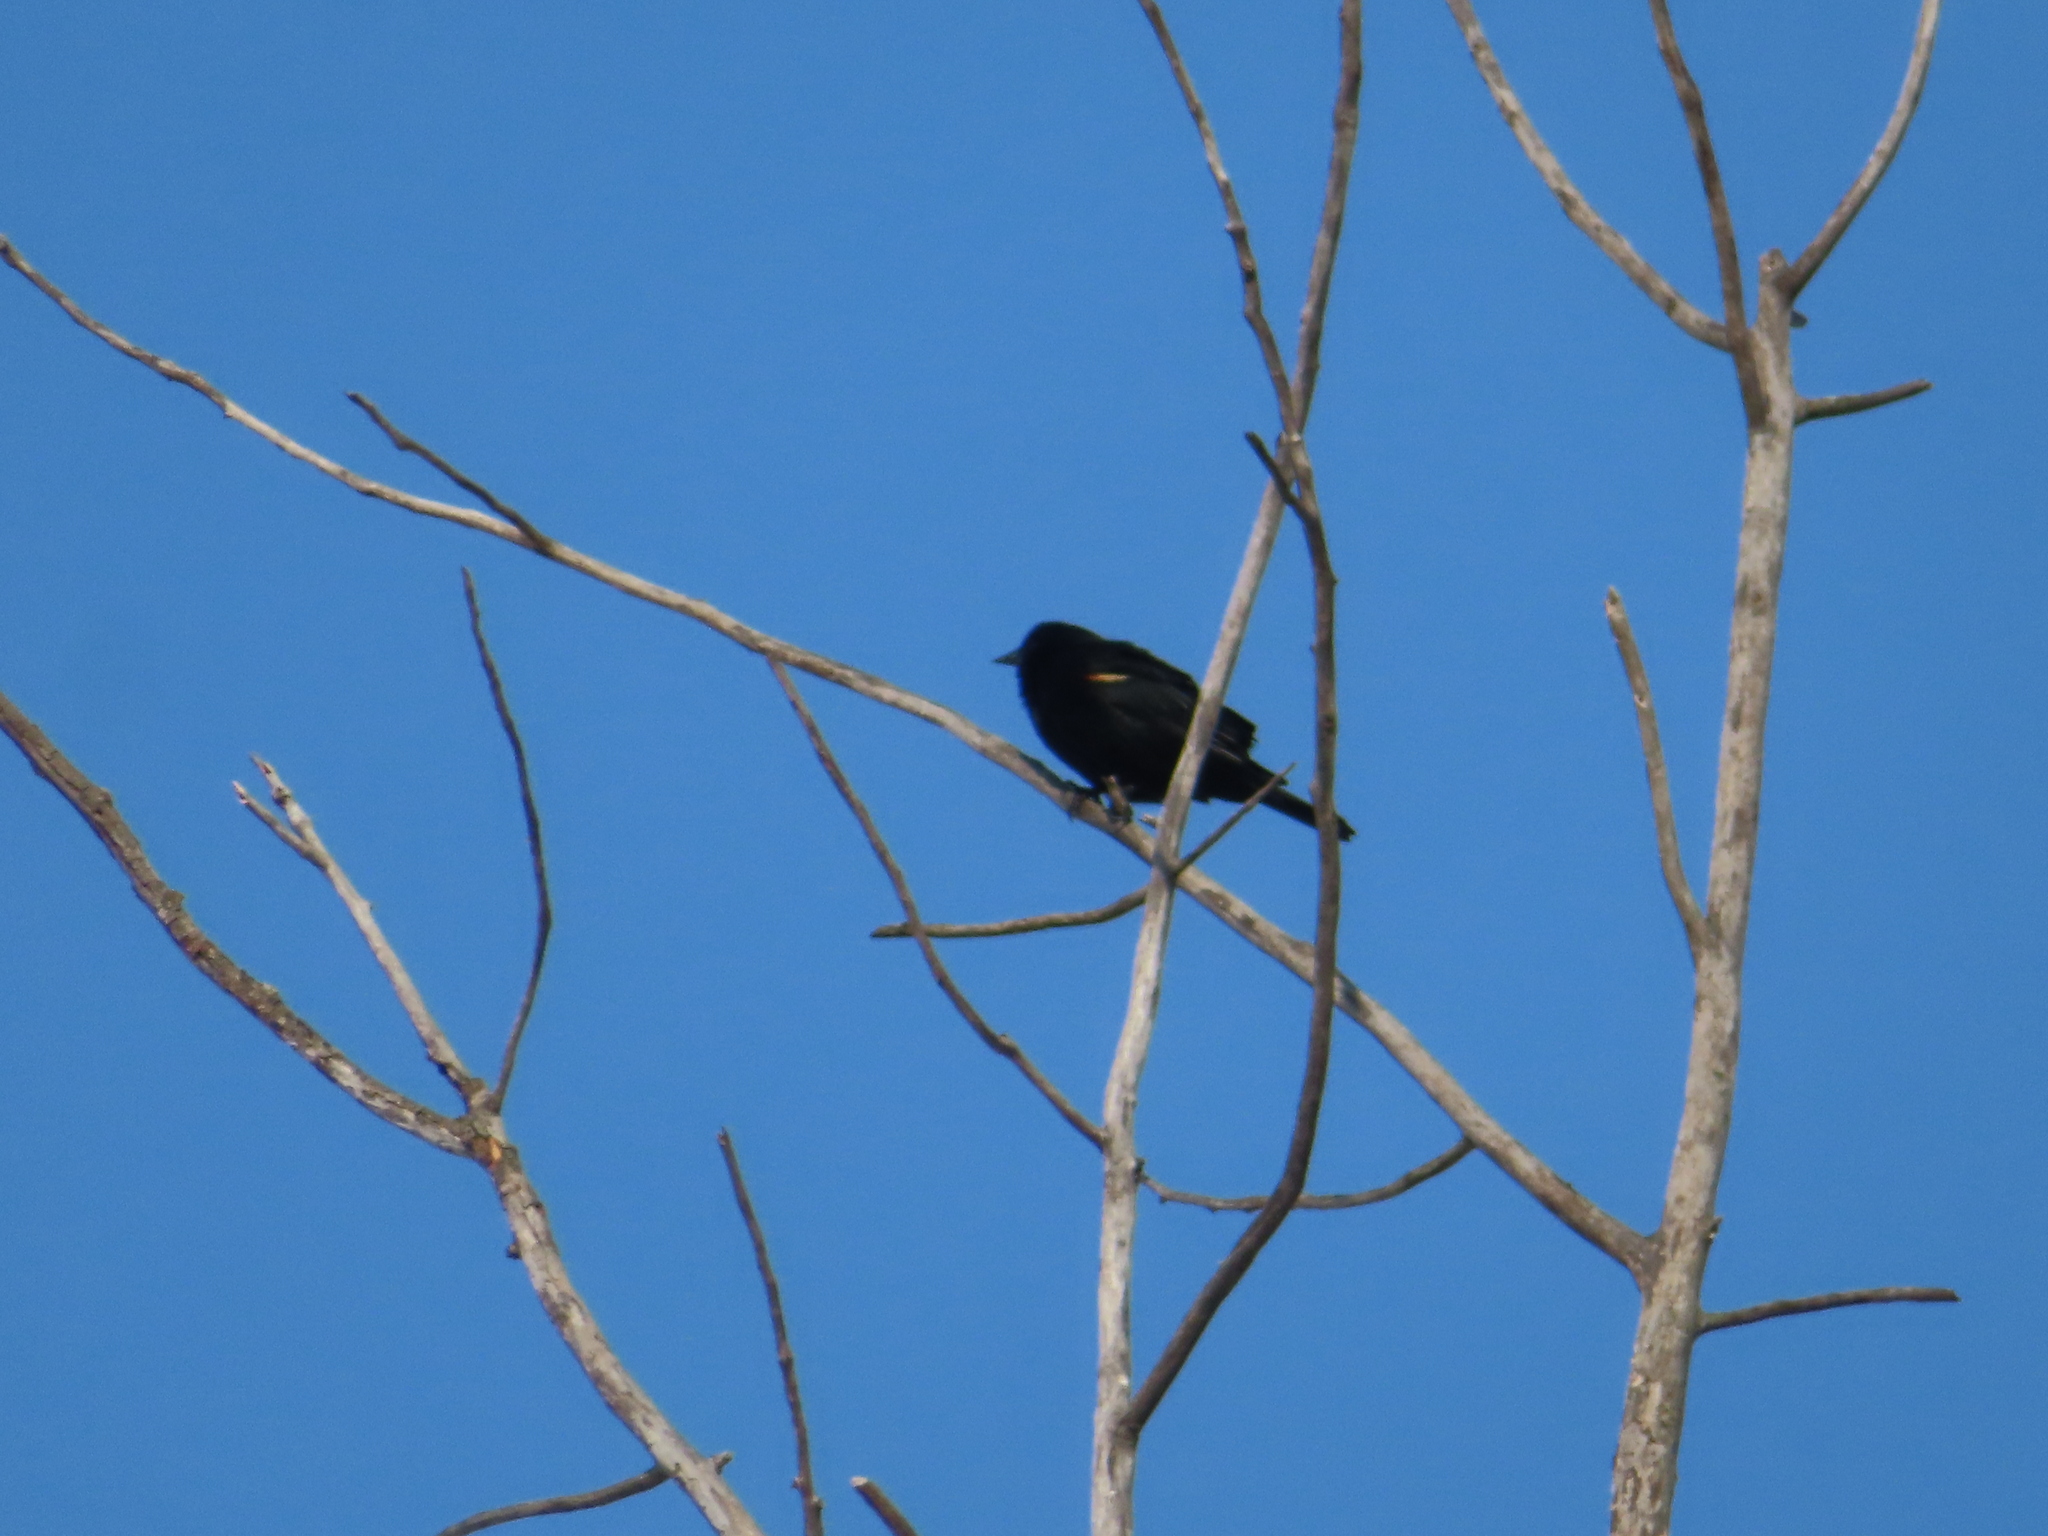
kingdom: Animalia
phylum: Chordata
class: Aves
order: Passeriformes
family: Icteridae
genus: Agelaius
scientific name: Agelaius phoeniceus
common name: Red-winged blackbird
